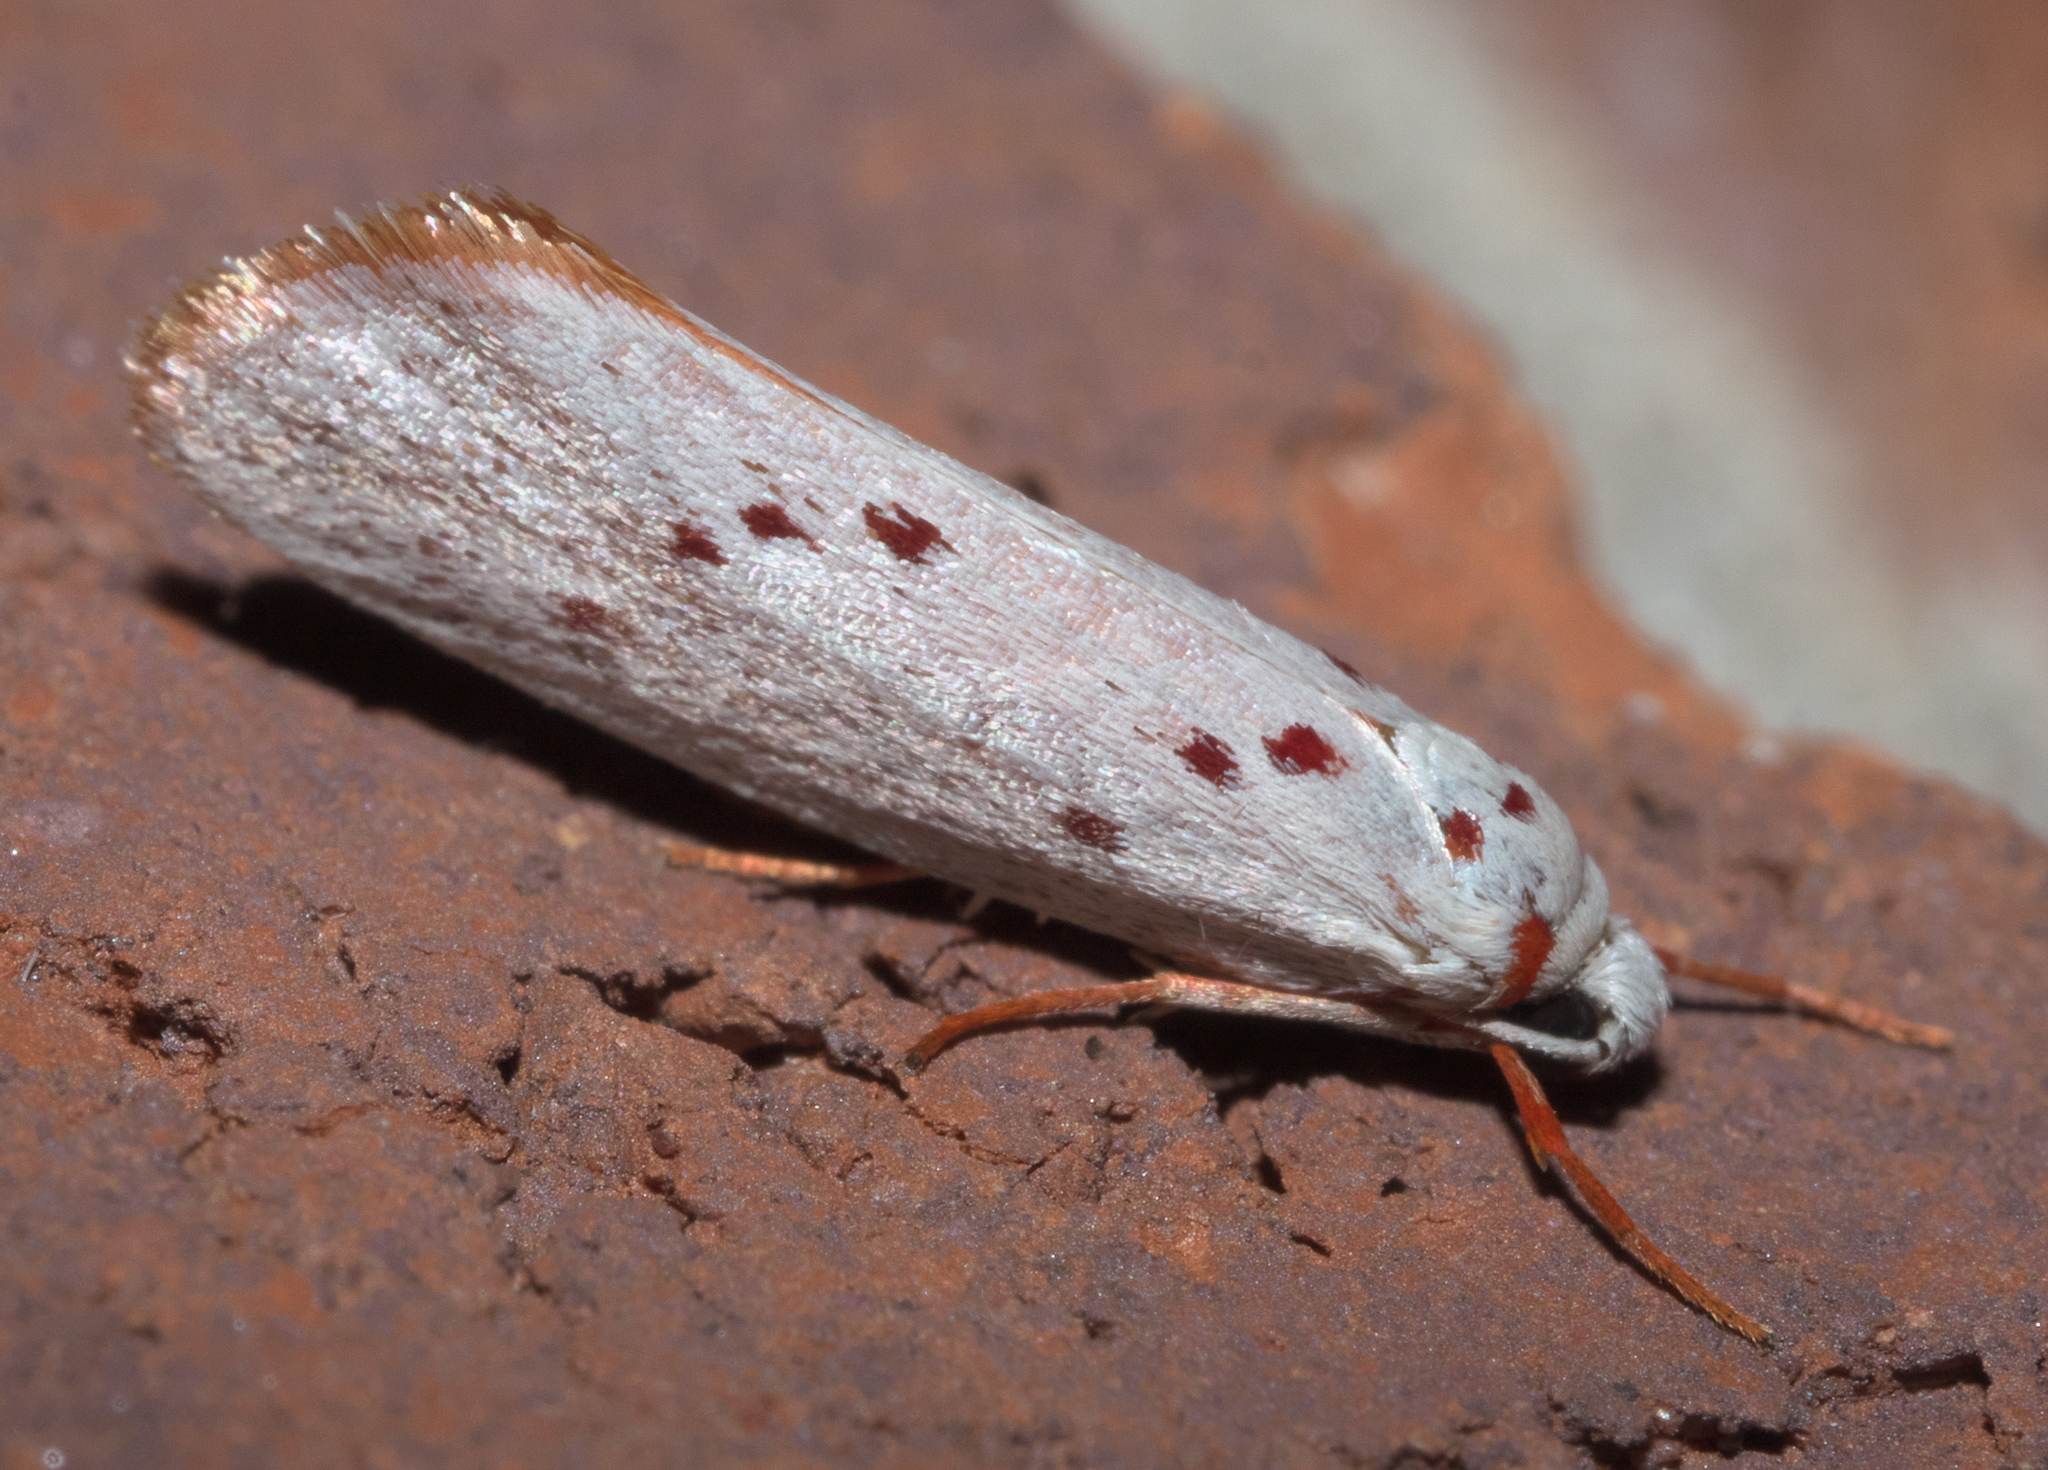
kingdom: Animalia
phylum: Arthropoda
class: Insecta
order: Lepidoptera
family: Lacturidae
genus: Lactura
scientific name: Lactura
